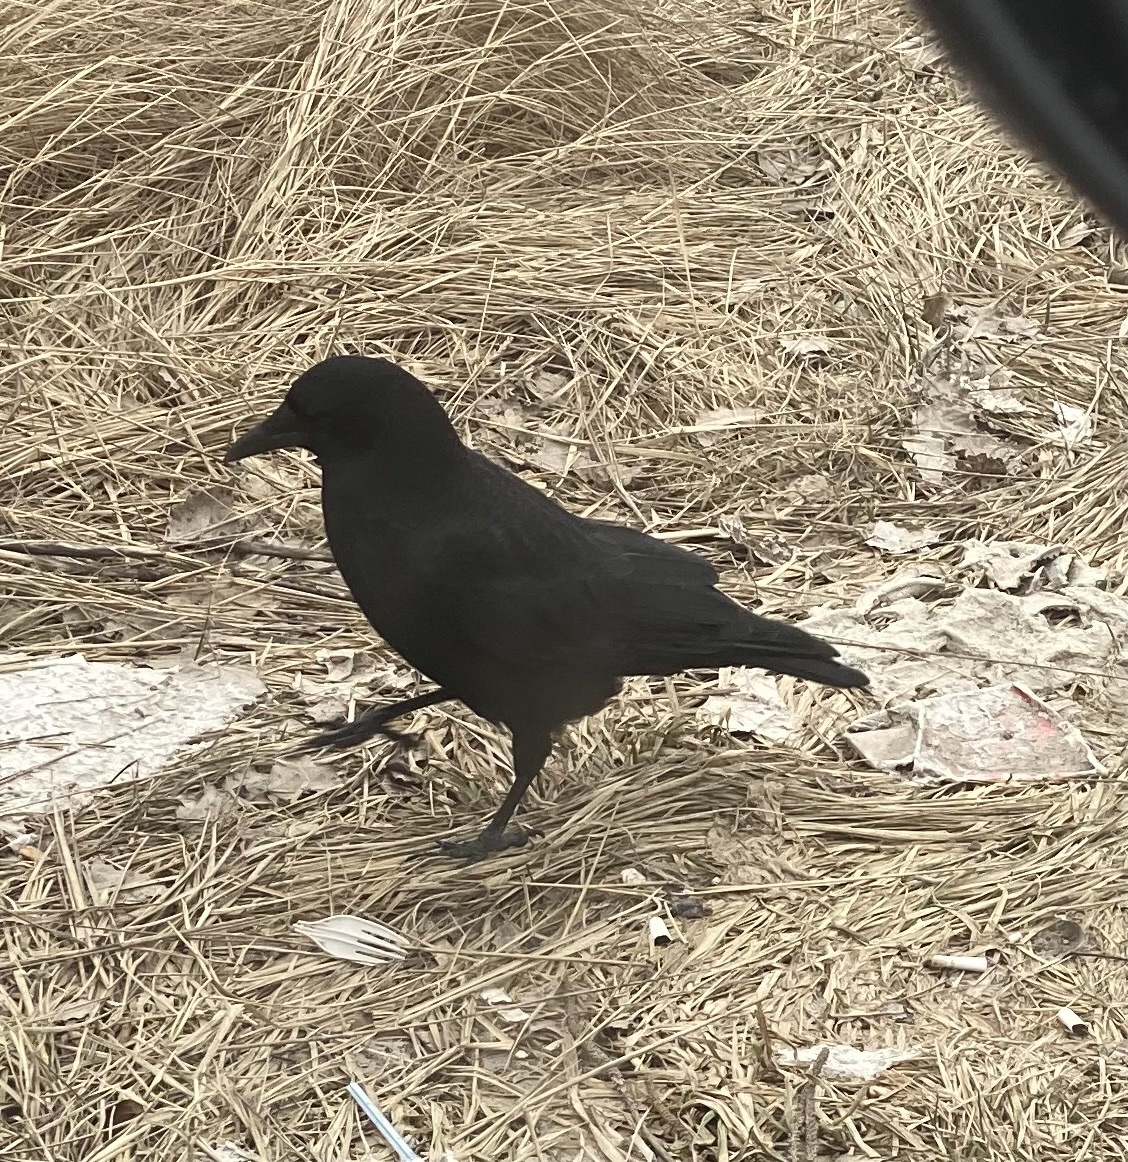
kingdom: Animalia
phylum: Chordata
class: Aves
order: Passeriformes
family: Corvidae
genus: Corvus
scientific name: Corvus brachyrhynchos
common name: American crow
